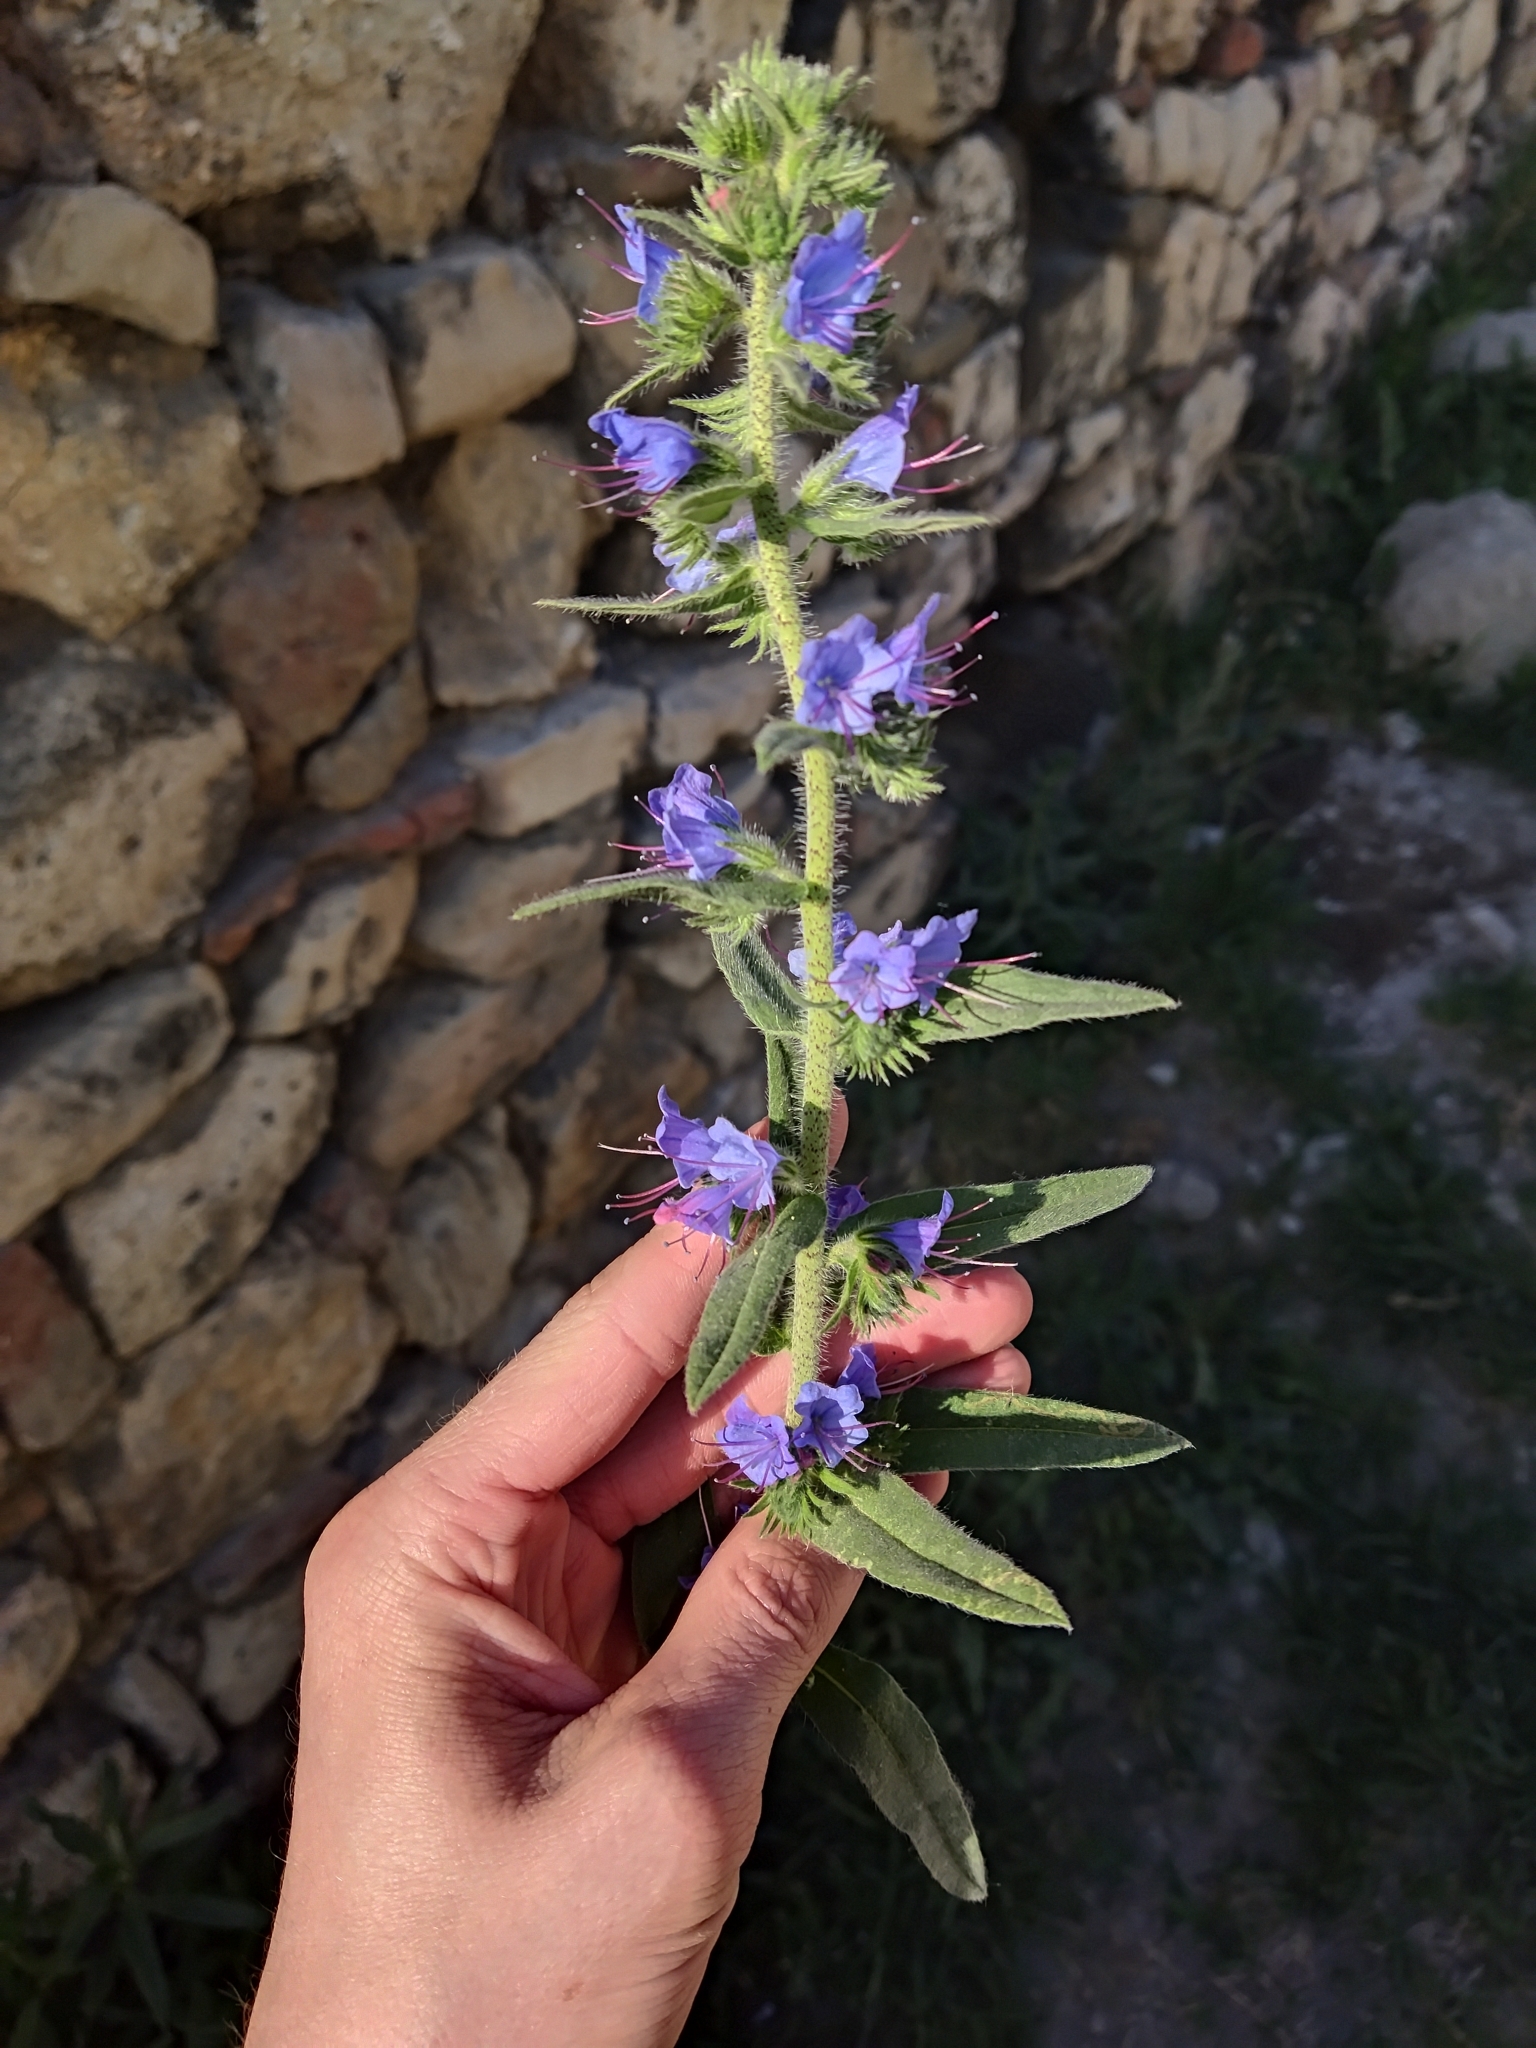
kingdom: Plantae
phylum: Tracheophyta
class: Magnoliopsida
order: Boraginales
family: Boraginaceae
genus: Echium
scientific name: Echium vulgare
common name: Common viper's bugloss
